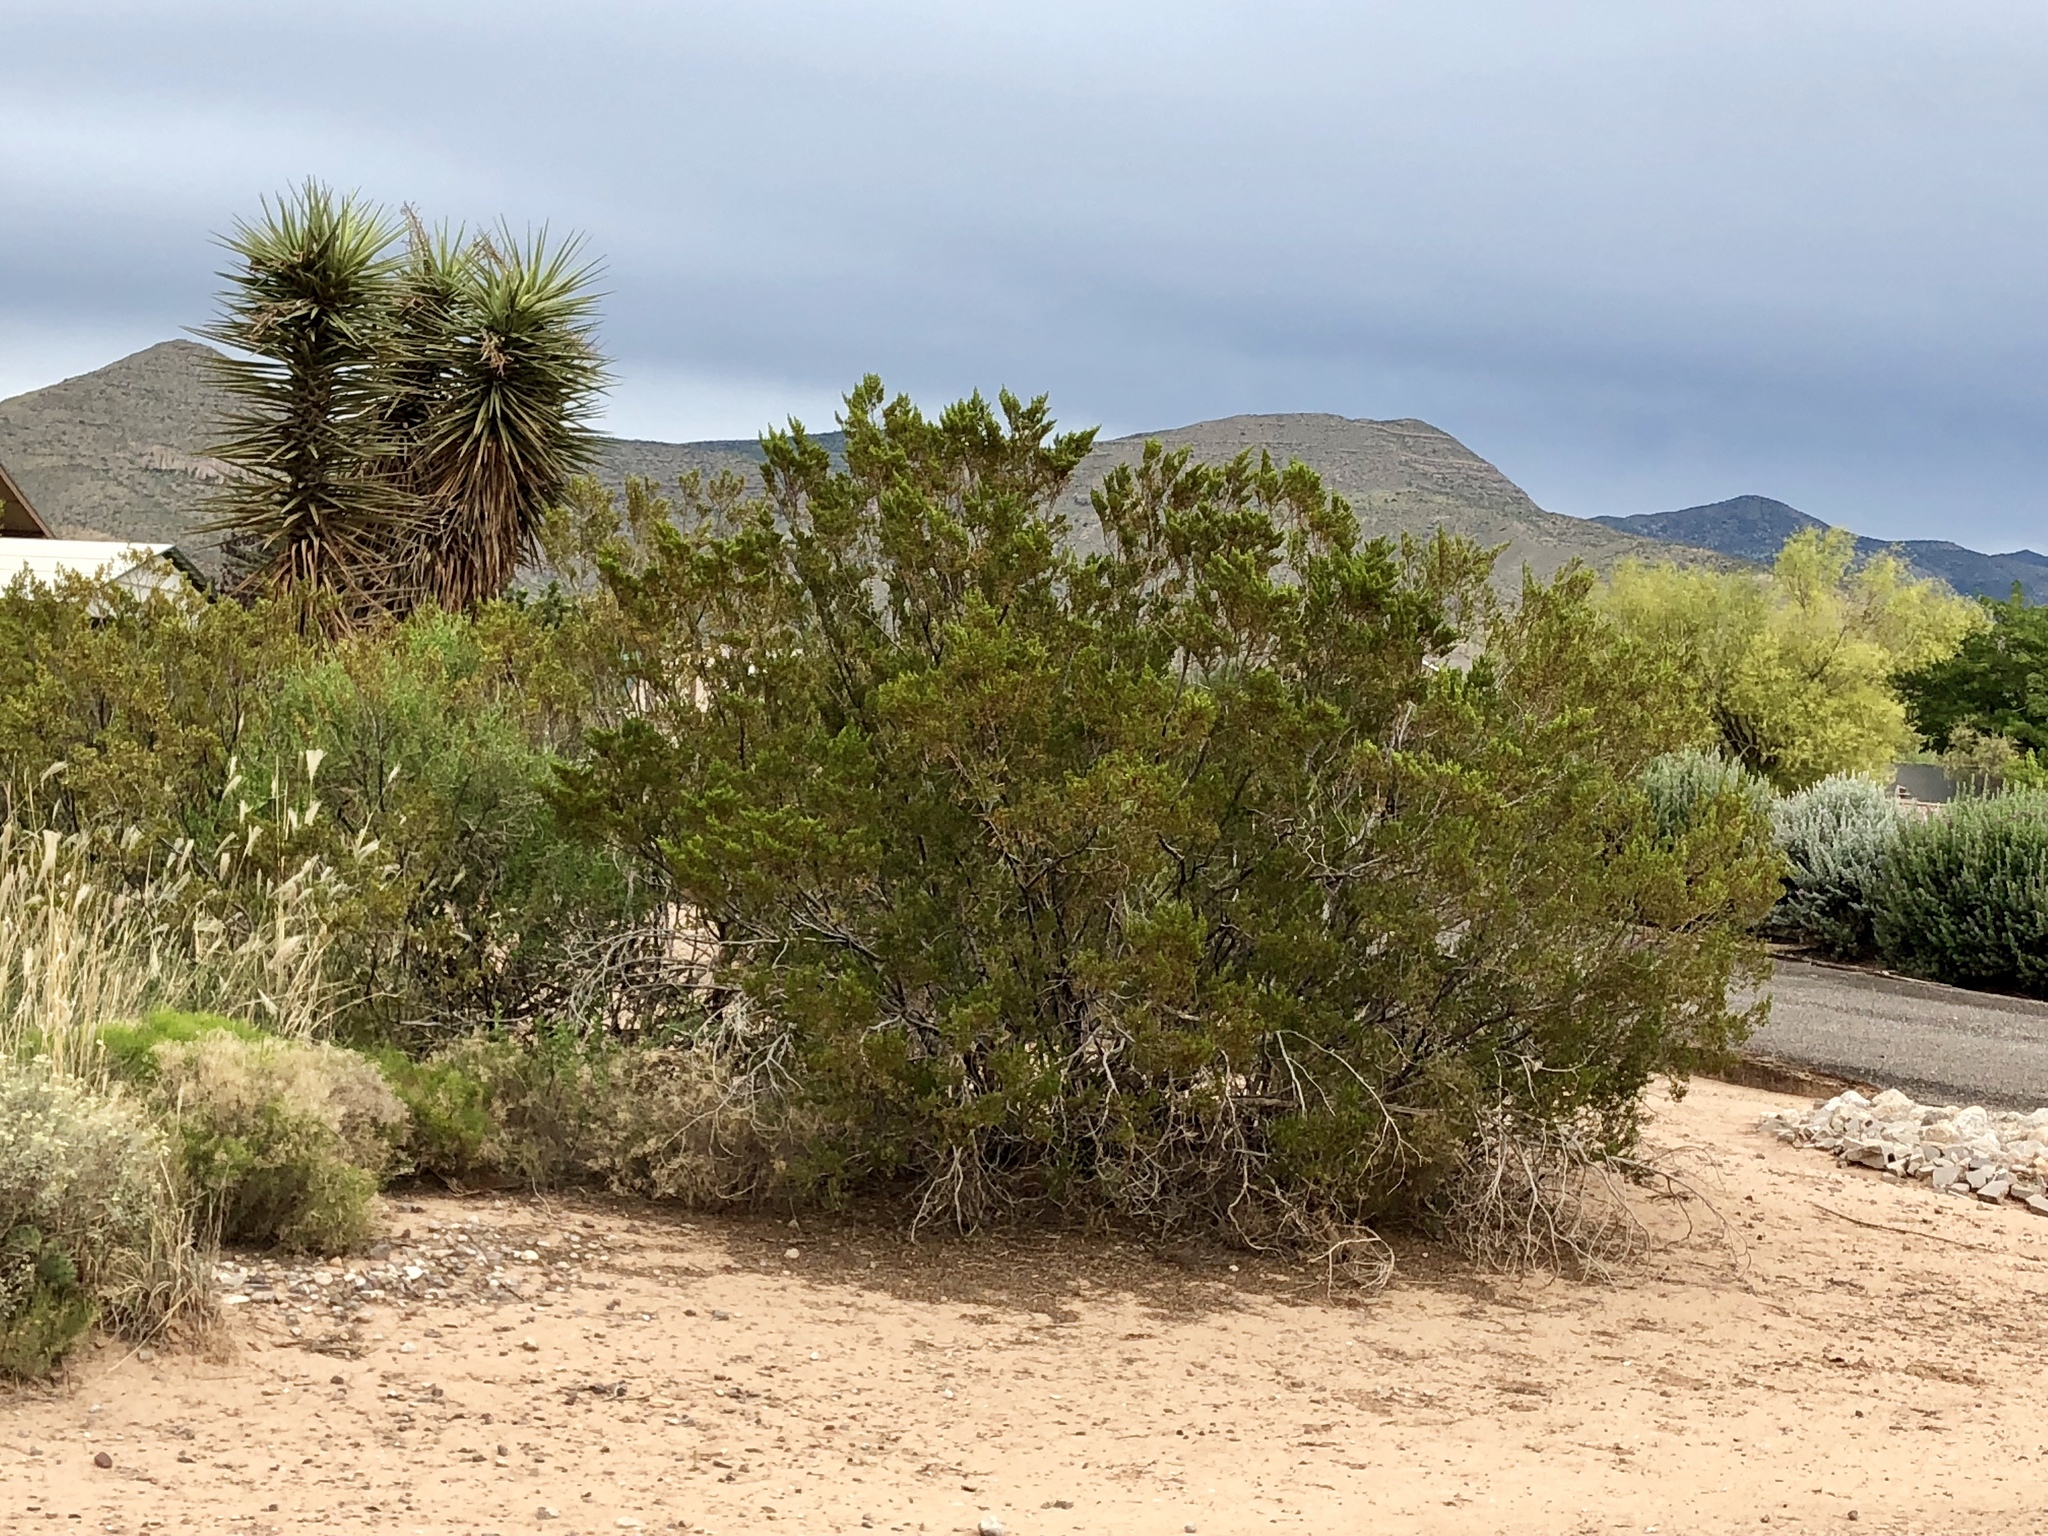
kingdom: Plantae
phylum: Tracheophyta
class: Magnoliopsida
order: Zygophyllales
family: Zygophyllaceae
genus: Larrea
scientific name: Larrea tridentata
